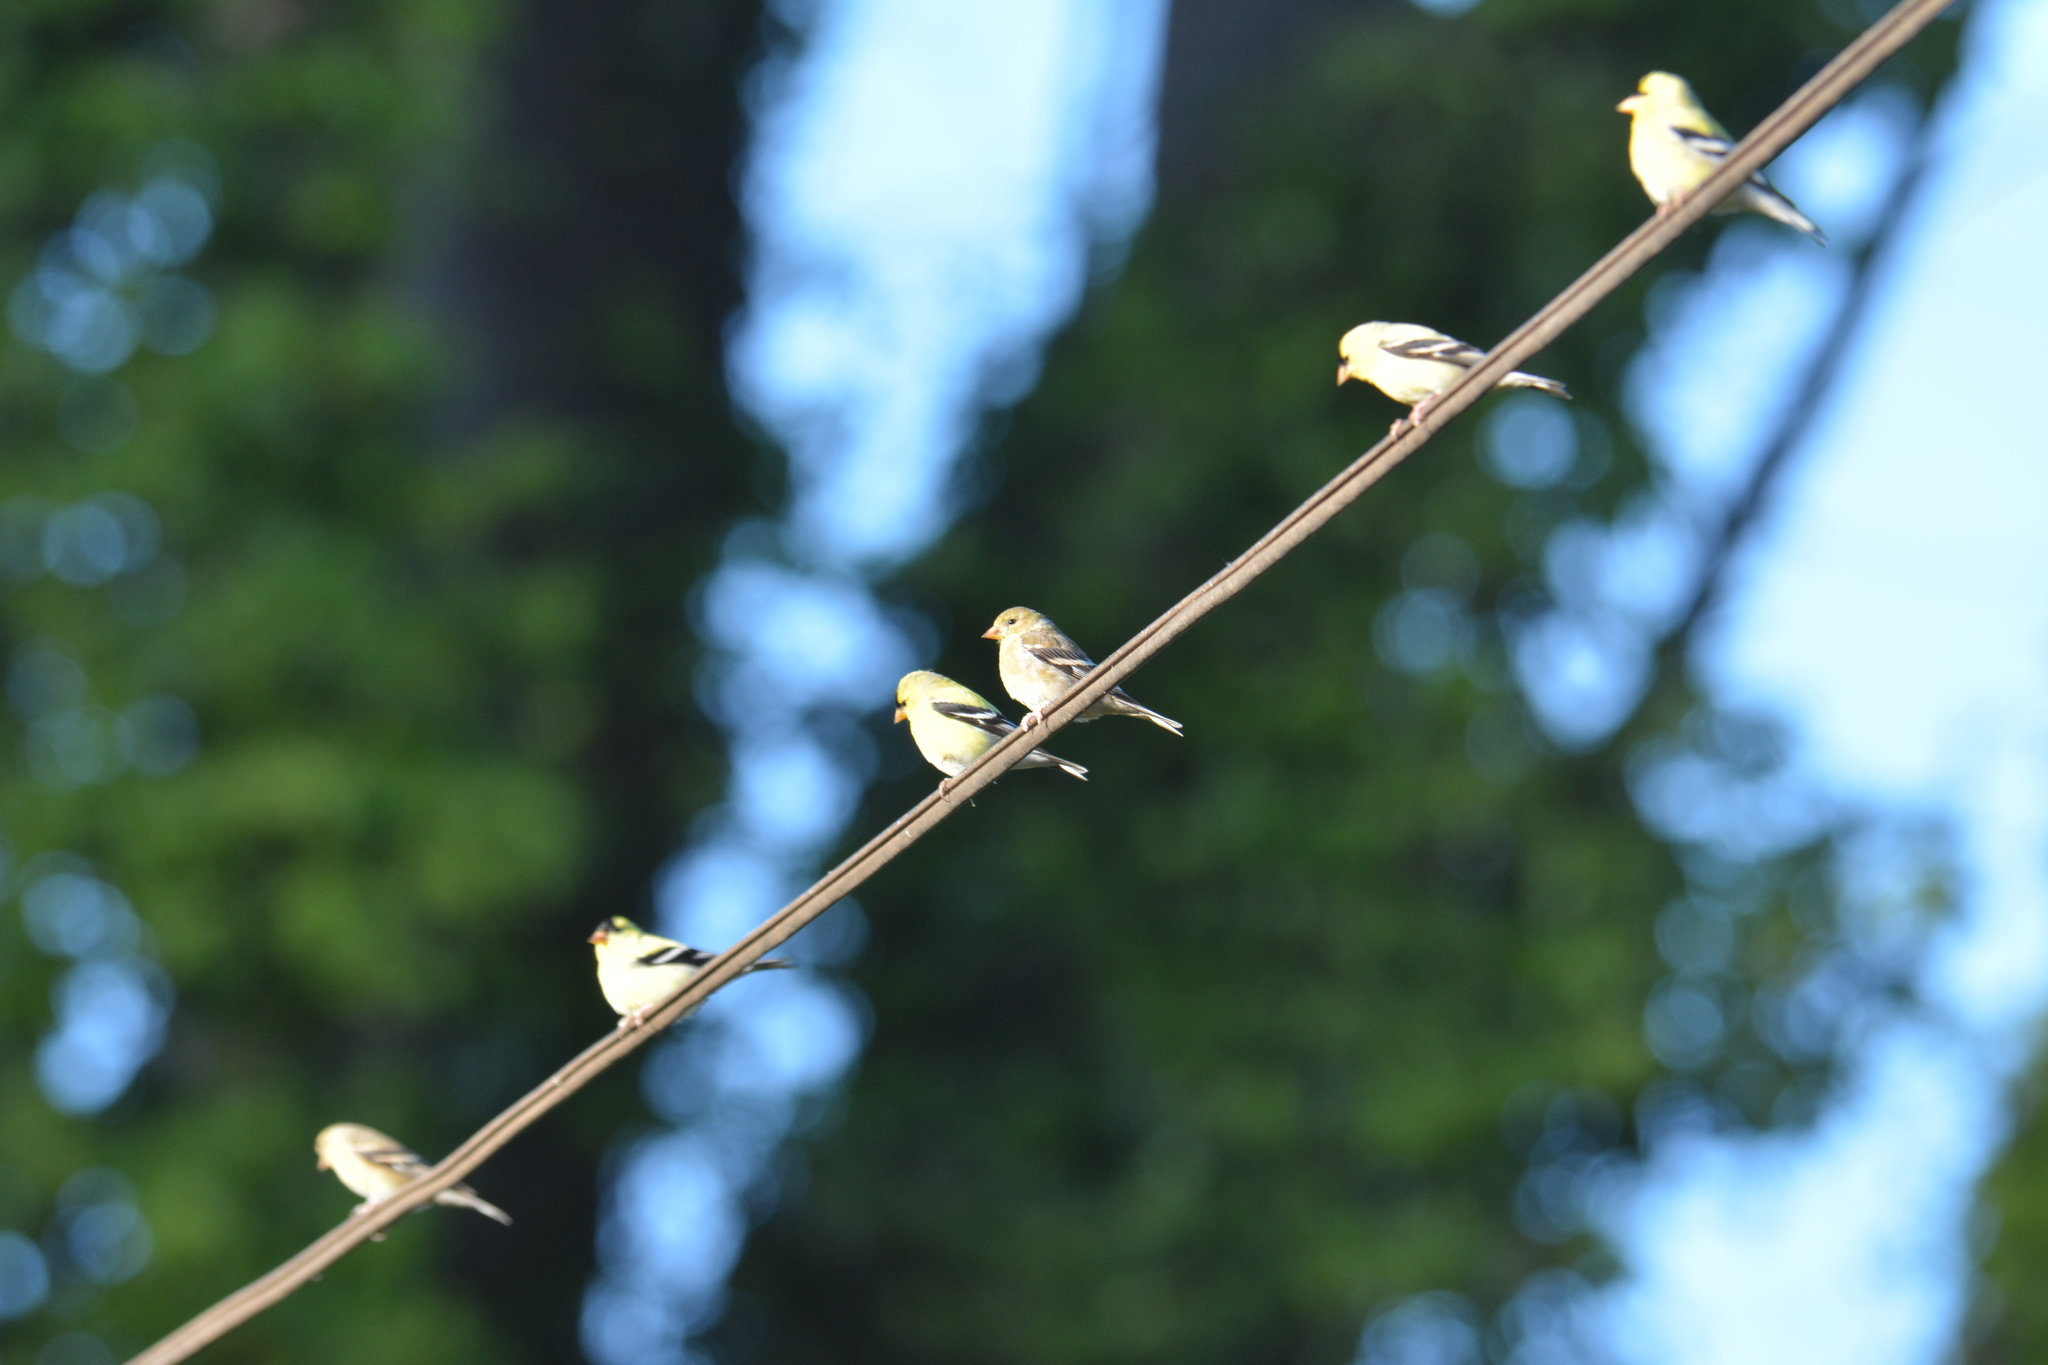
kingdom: Animalia
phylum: Chordata
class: Aves
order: Passeriformes
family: Fringillidae
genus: Spinus
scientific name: Spinus tristis
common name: American goldfinch
